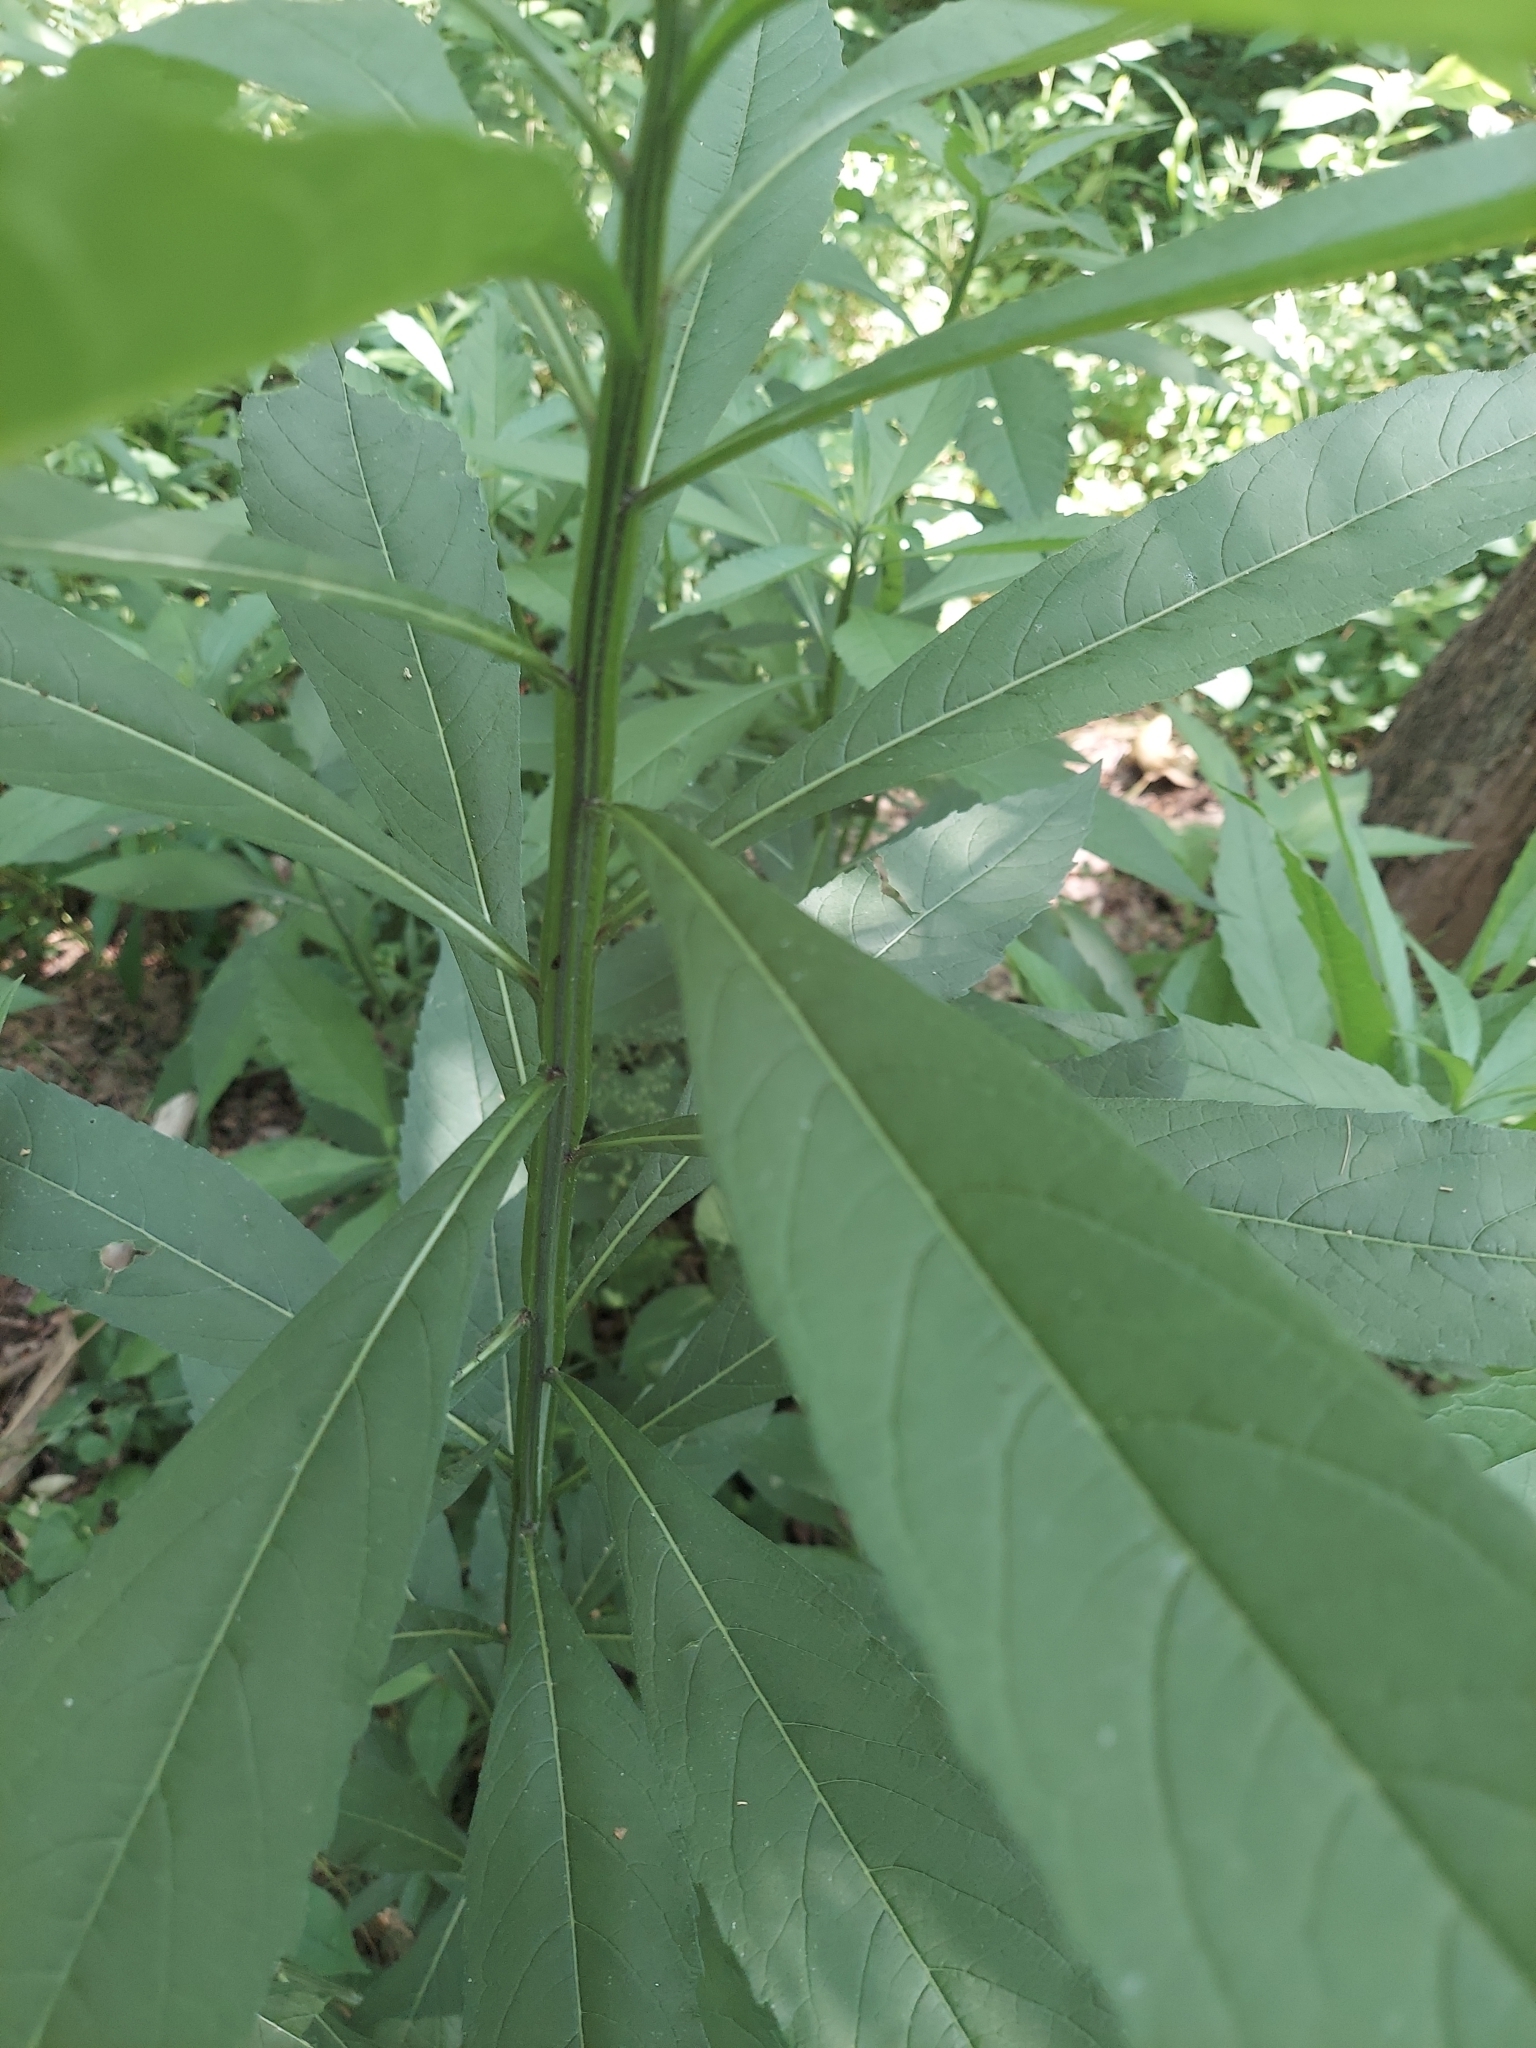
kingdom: Plantae
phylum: Tracheophyta
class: Magnoliopsida
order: Asterales
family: Asteraceae
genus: Verbesina
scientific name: Verbesina alternifolia
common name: Wingstem
